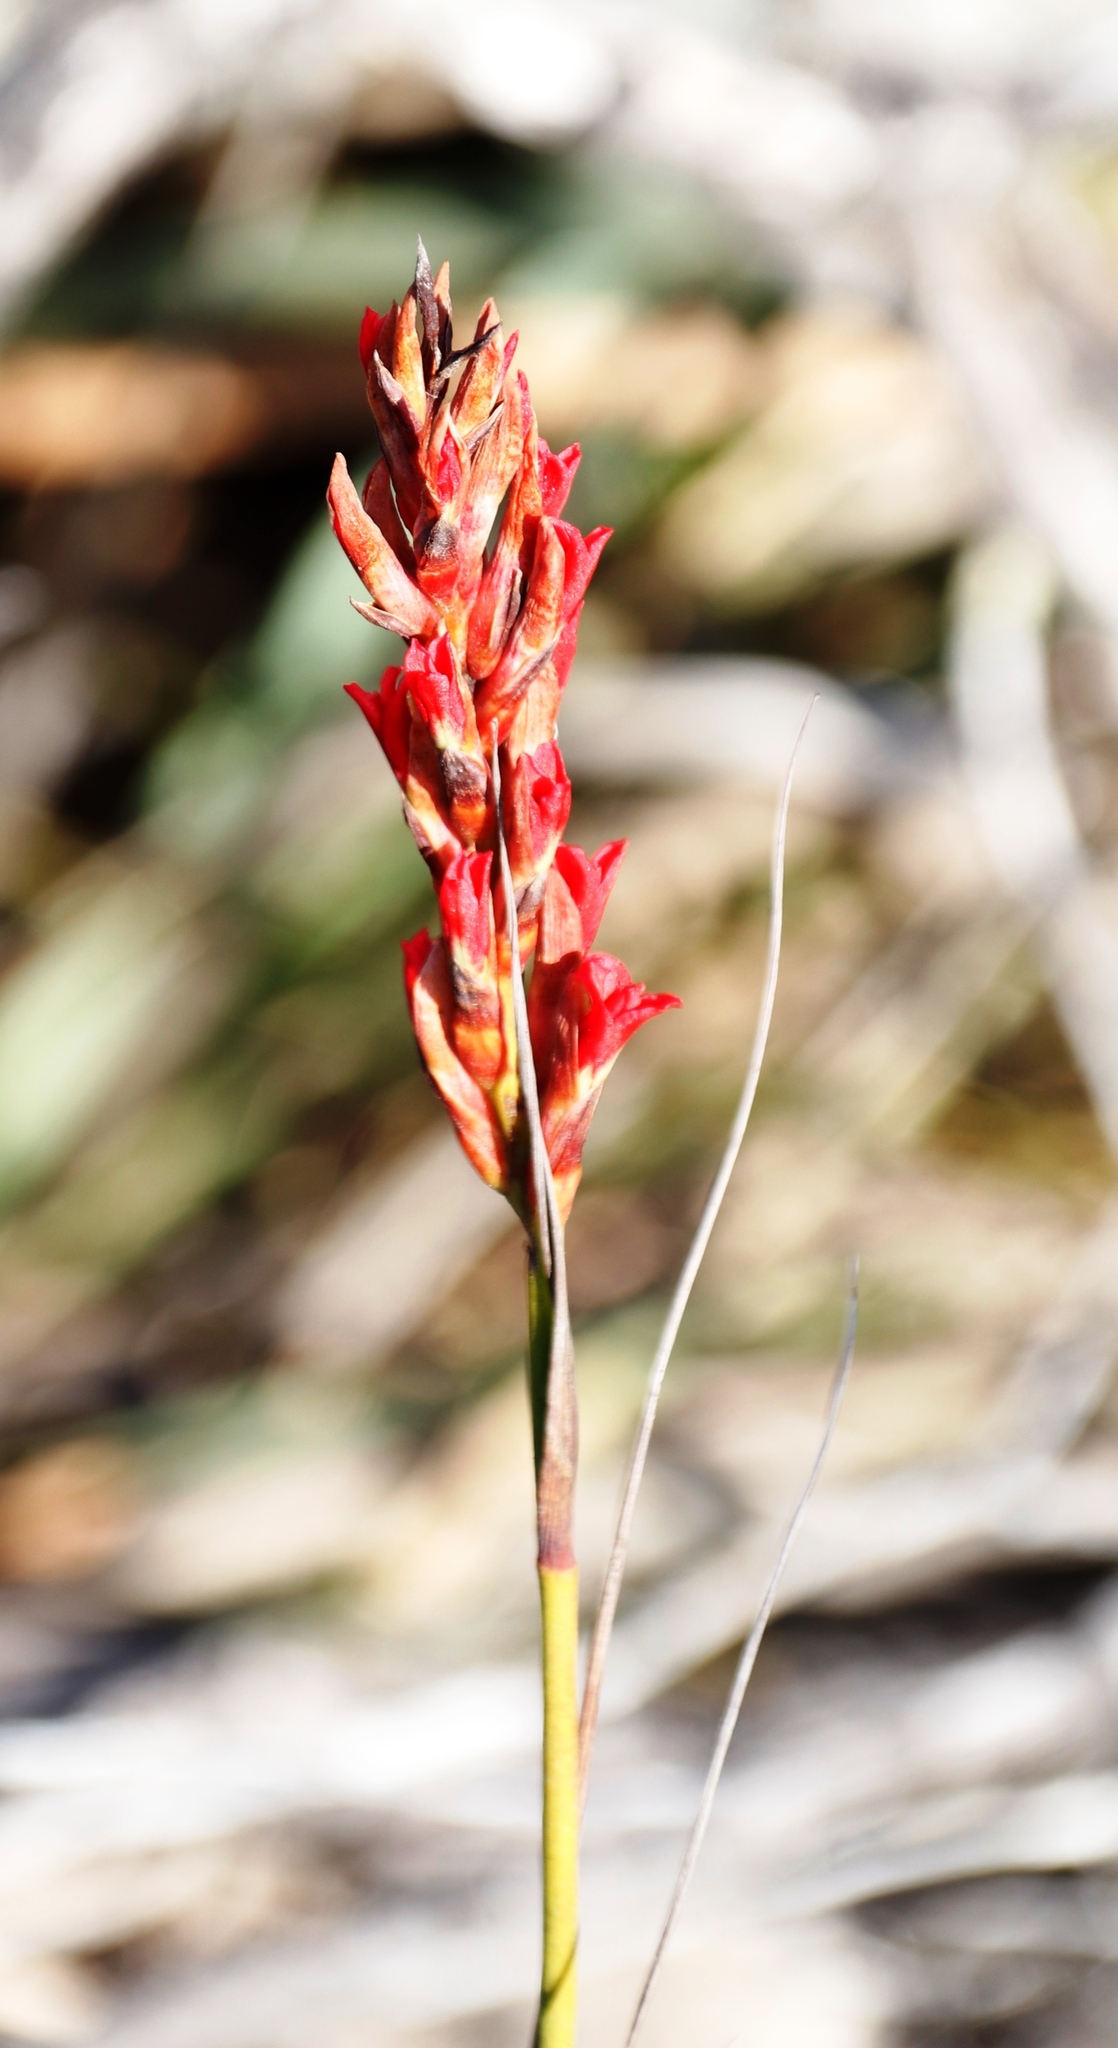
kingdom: Plantae
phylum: Tracheophyta
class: Liliopsida
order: Asparagales
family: Iridaceae
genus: Tritoniopsis
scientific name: Tritoniopsis triticea
